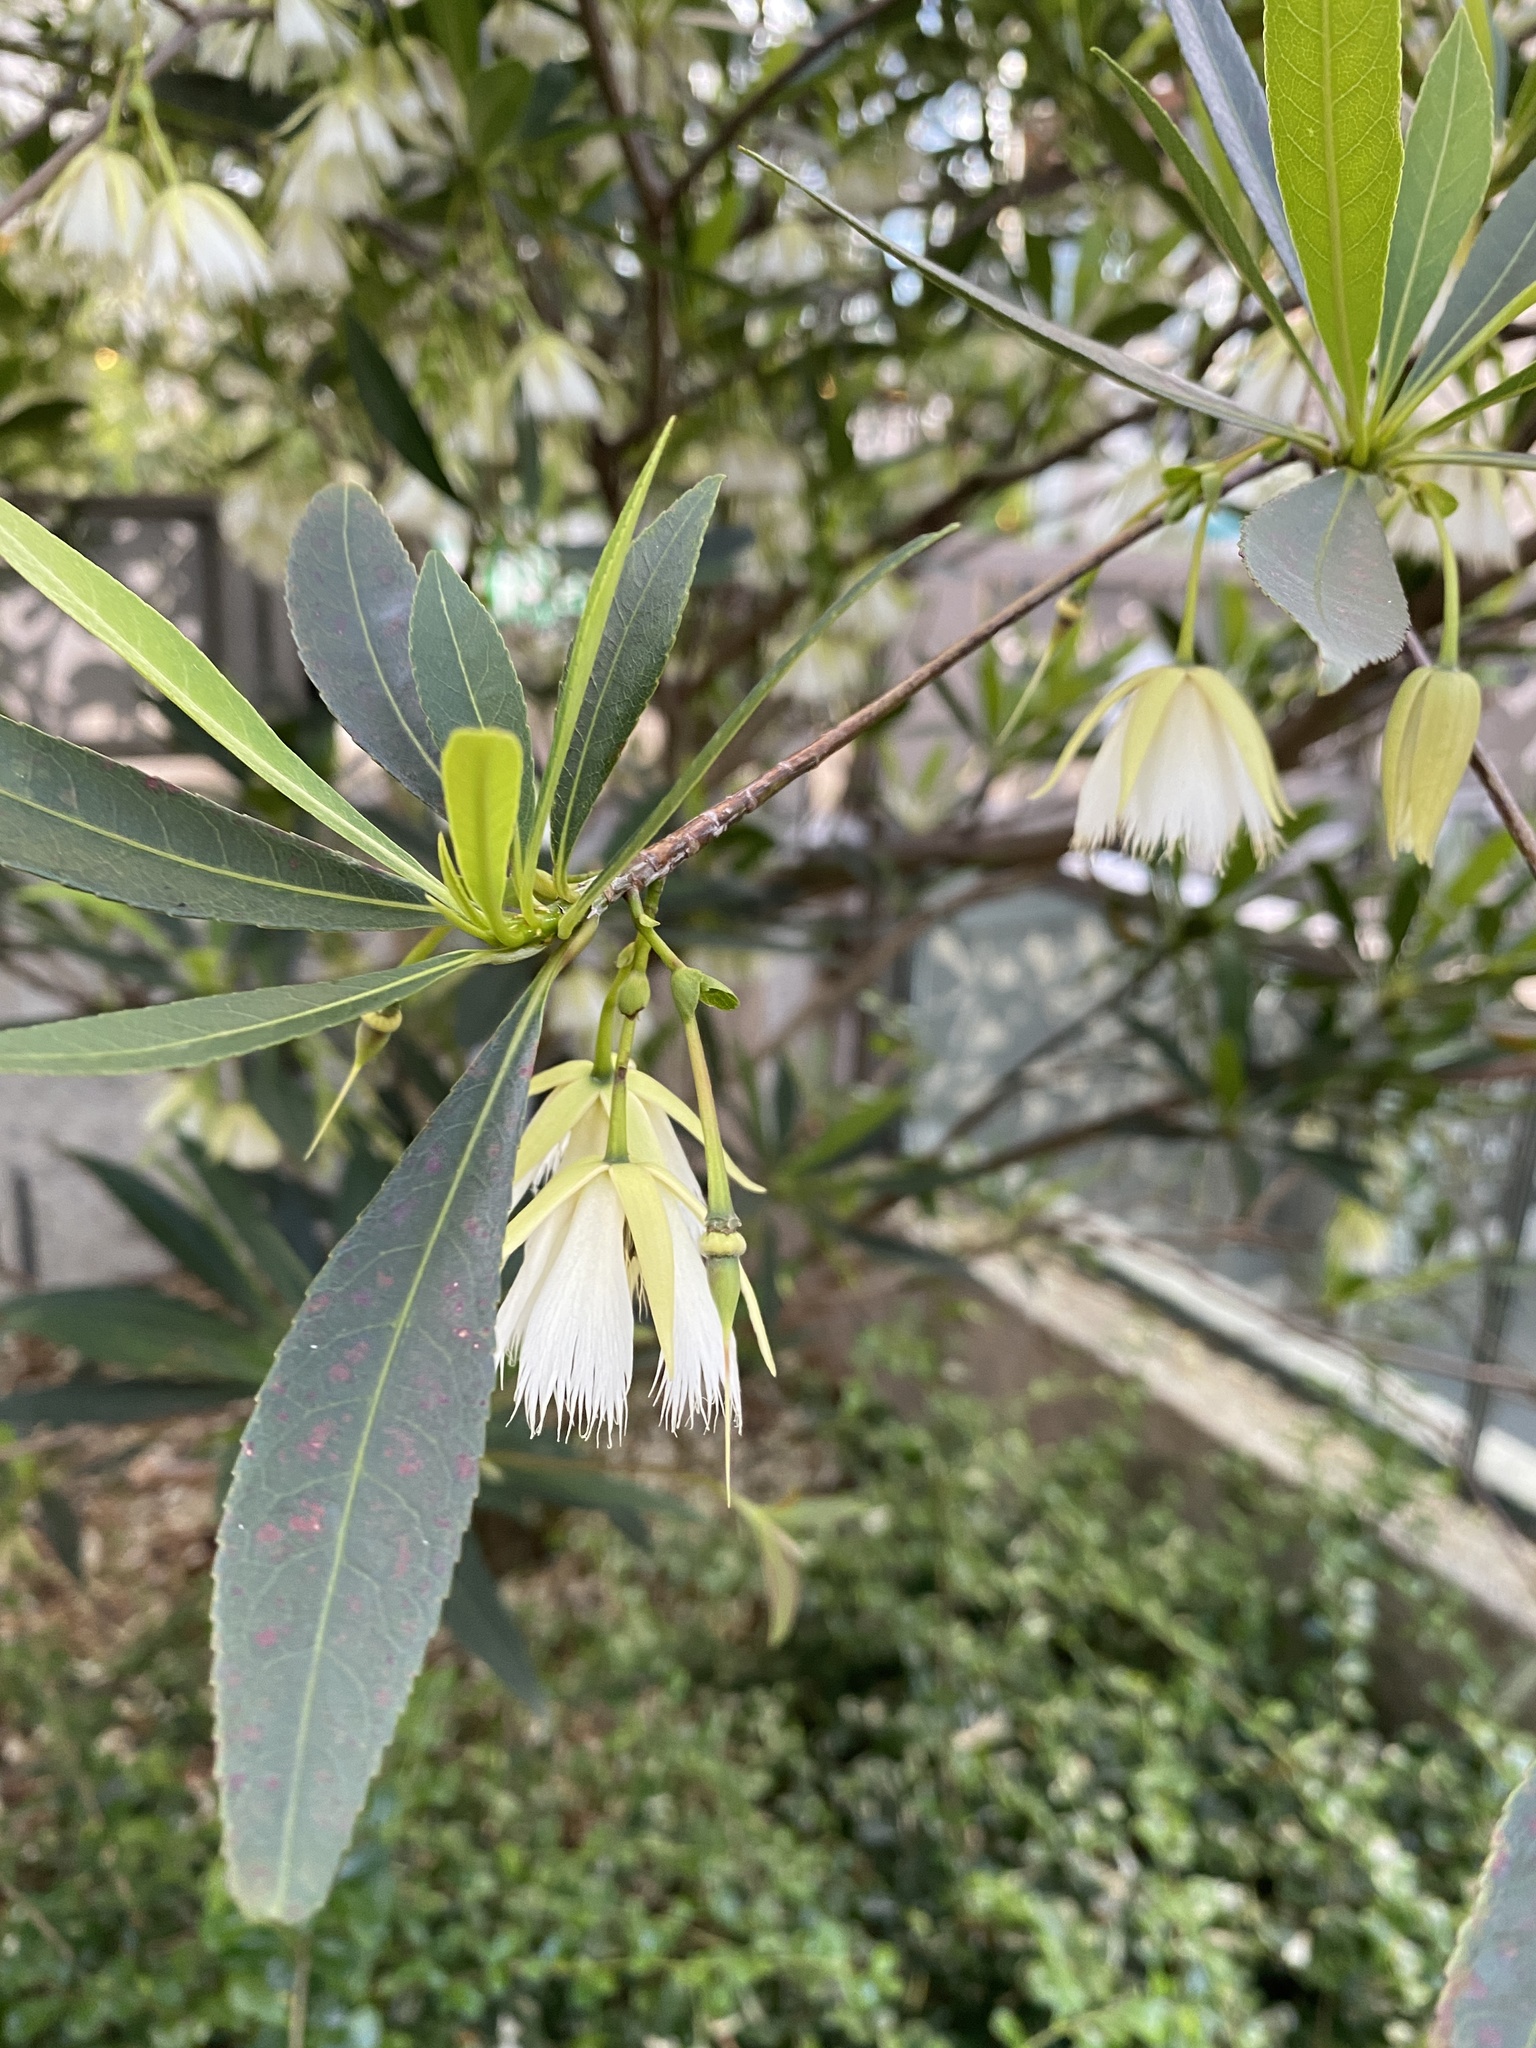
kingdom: Plantae
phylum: Tracheophyta
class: Magnoliopsida
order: Oxalidales
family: Elaeocarpaceae
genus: Elaeocarpus
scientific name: Elaeocarpus hainanensis
